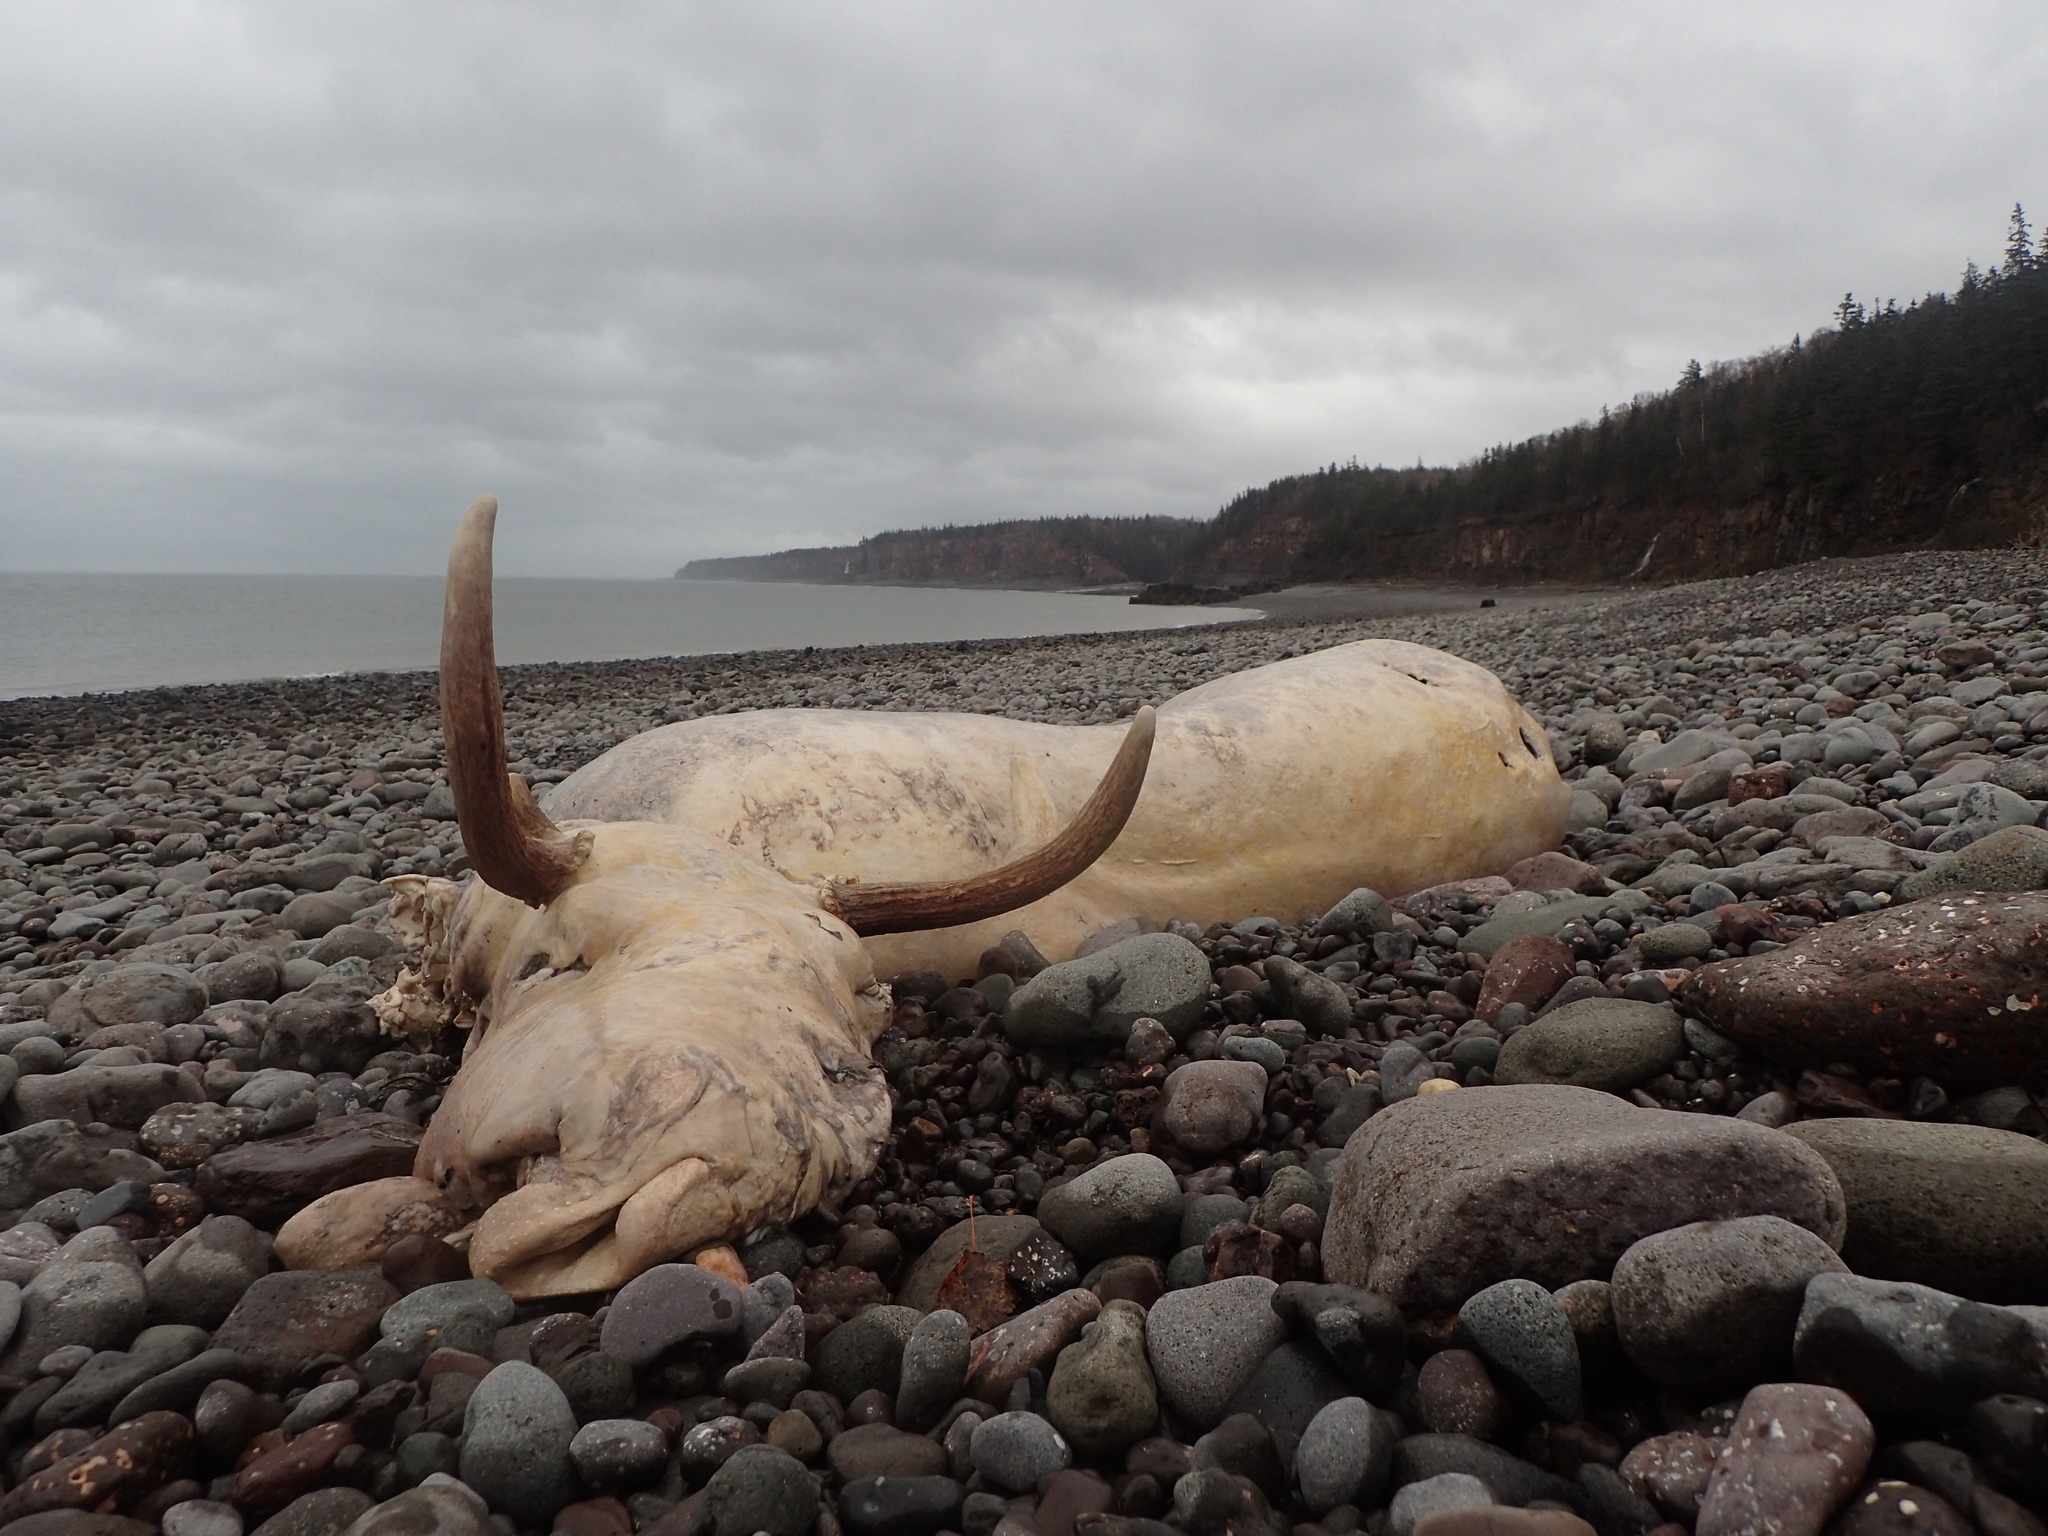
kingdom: Animalia
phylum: Chordata
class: Mammalia
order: Artiodactyla
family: Cervidae
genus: Alces
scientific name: Alces americanus
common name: Moose
